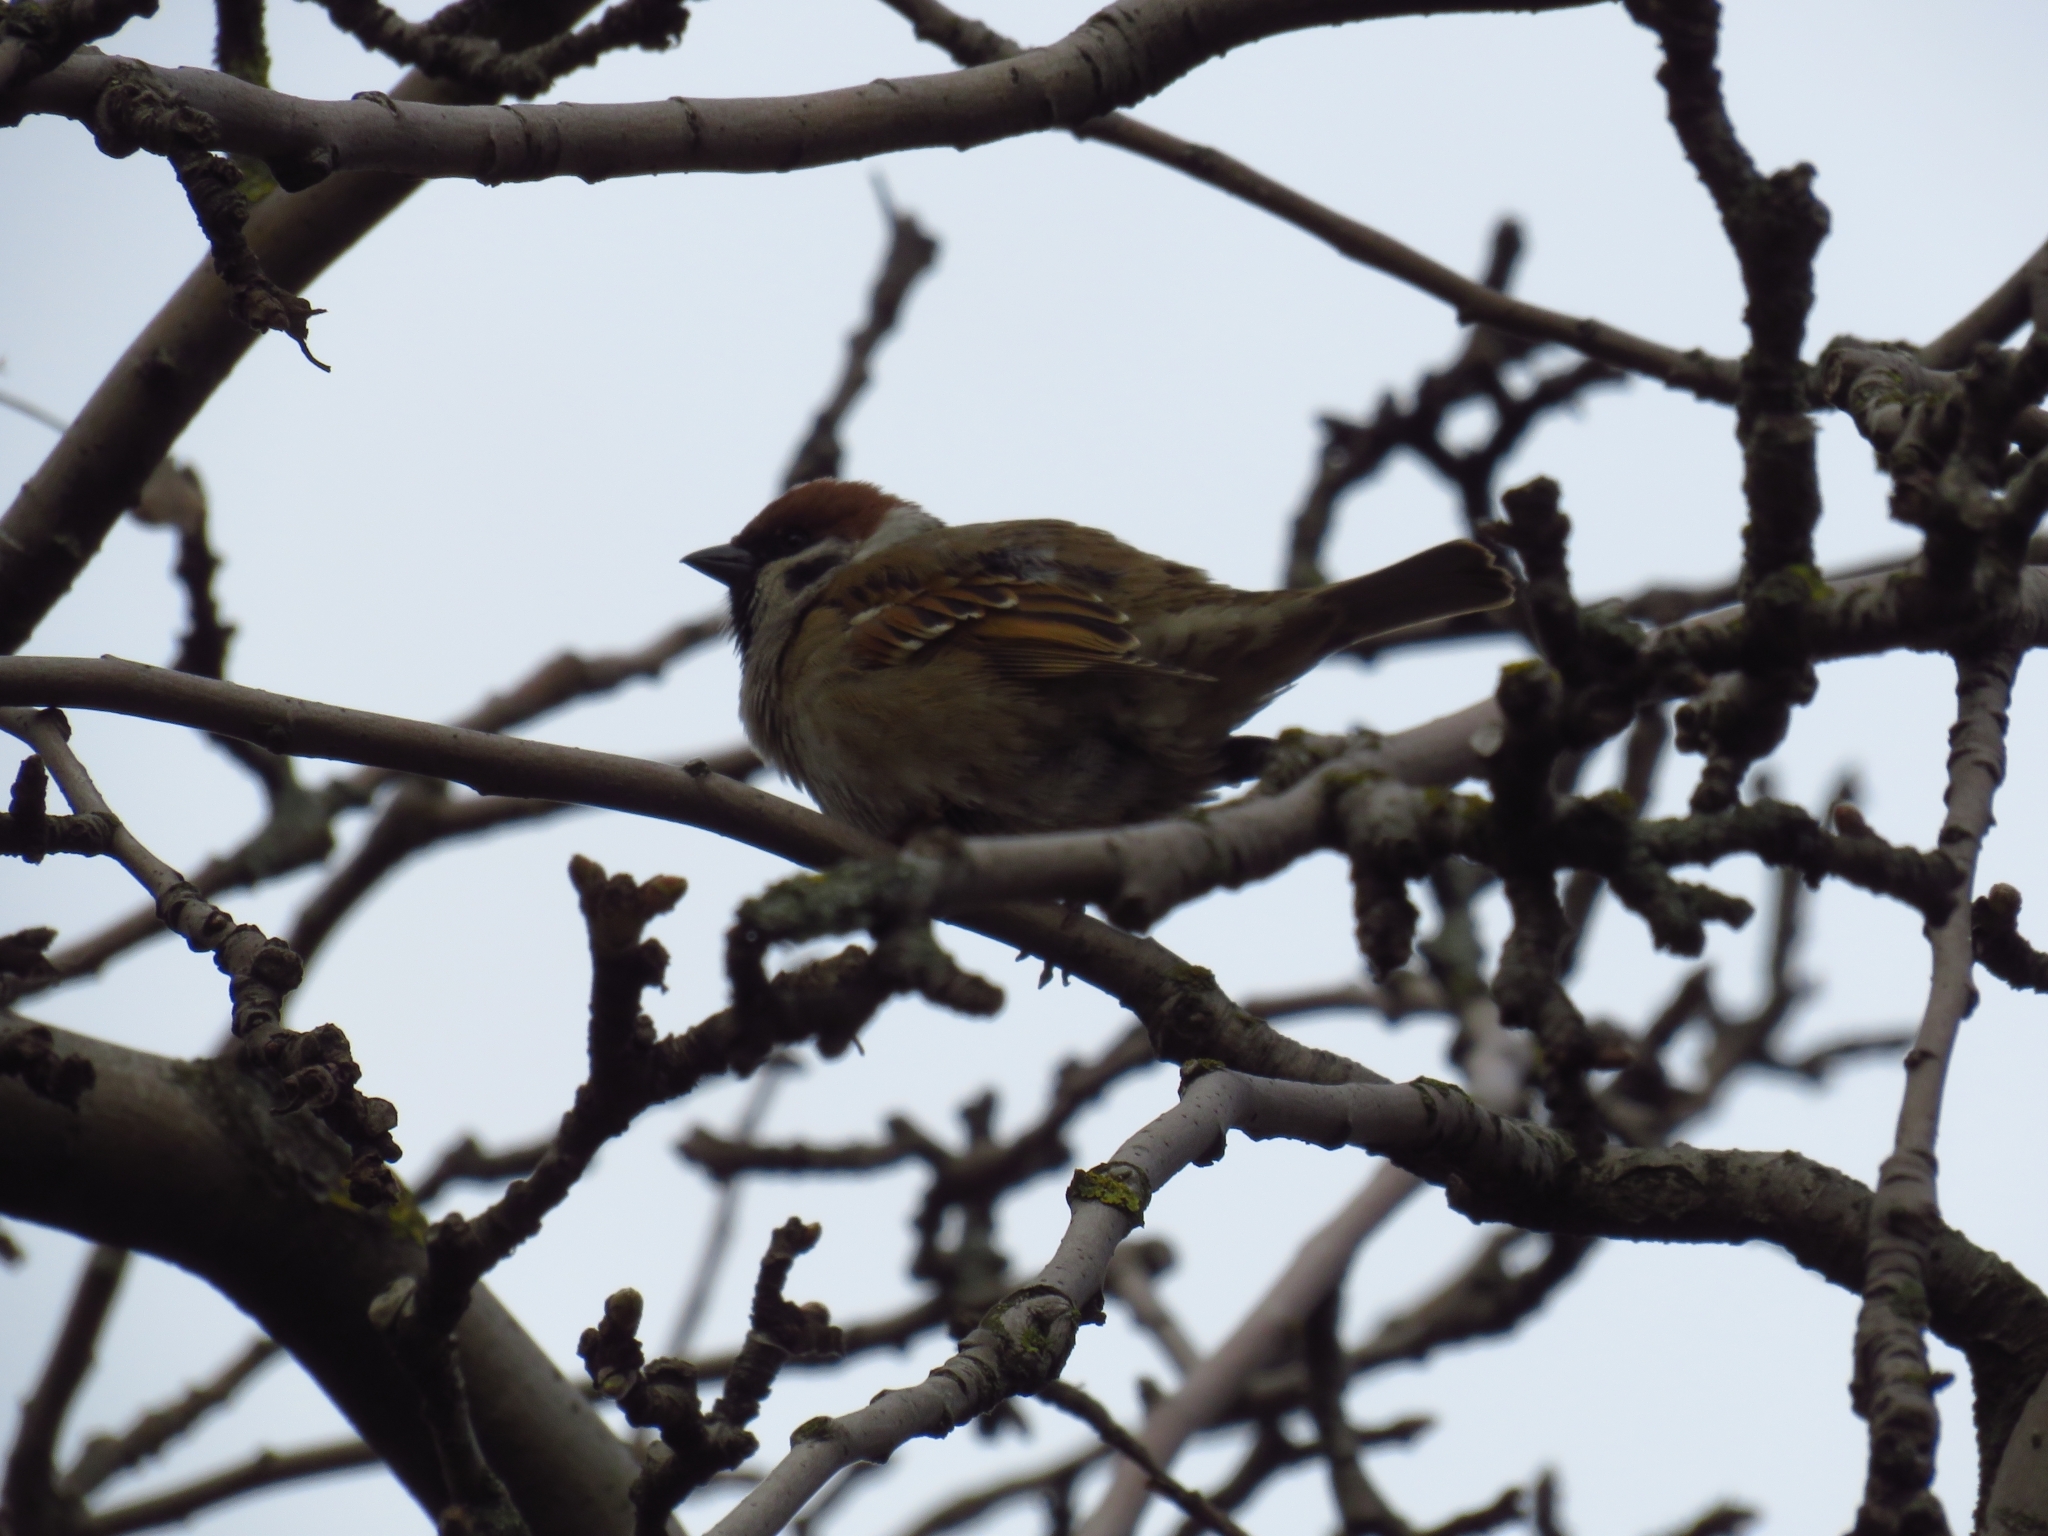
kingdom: Animalia
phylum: Chordata
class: Aves
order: Passeriformes
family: Passeridae
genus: Passer
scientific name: Passer montanus
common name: Eurasian tree sparrow
